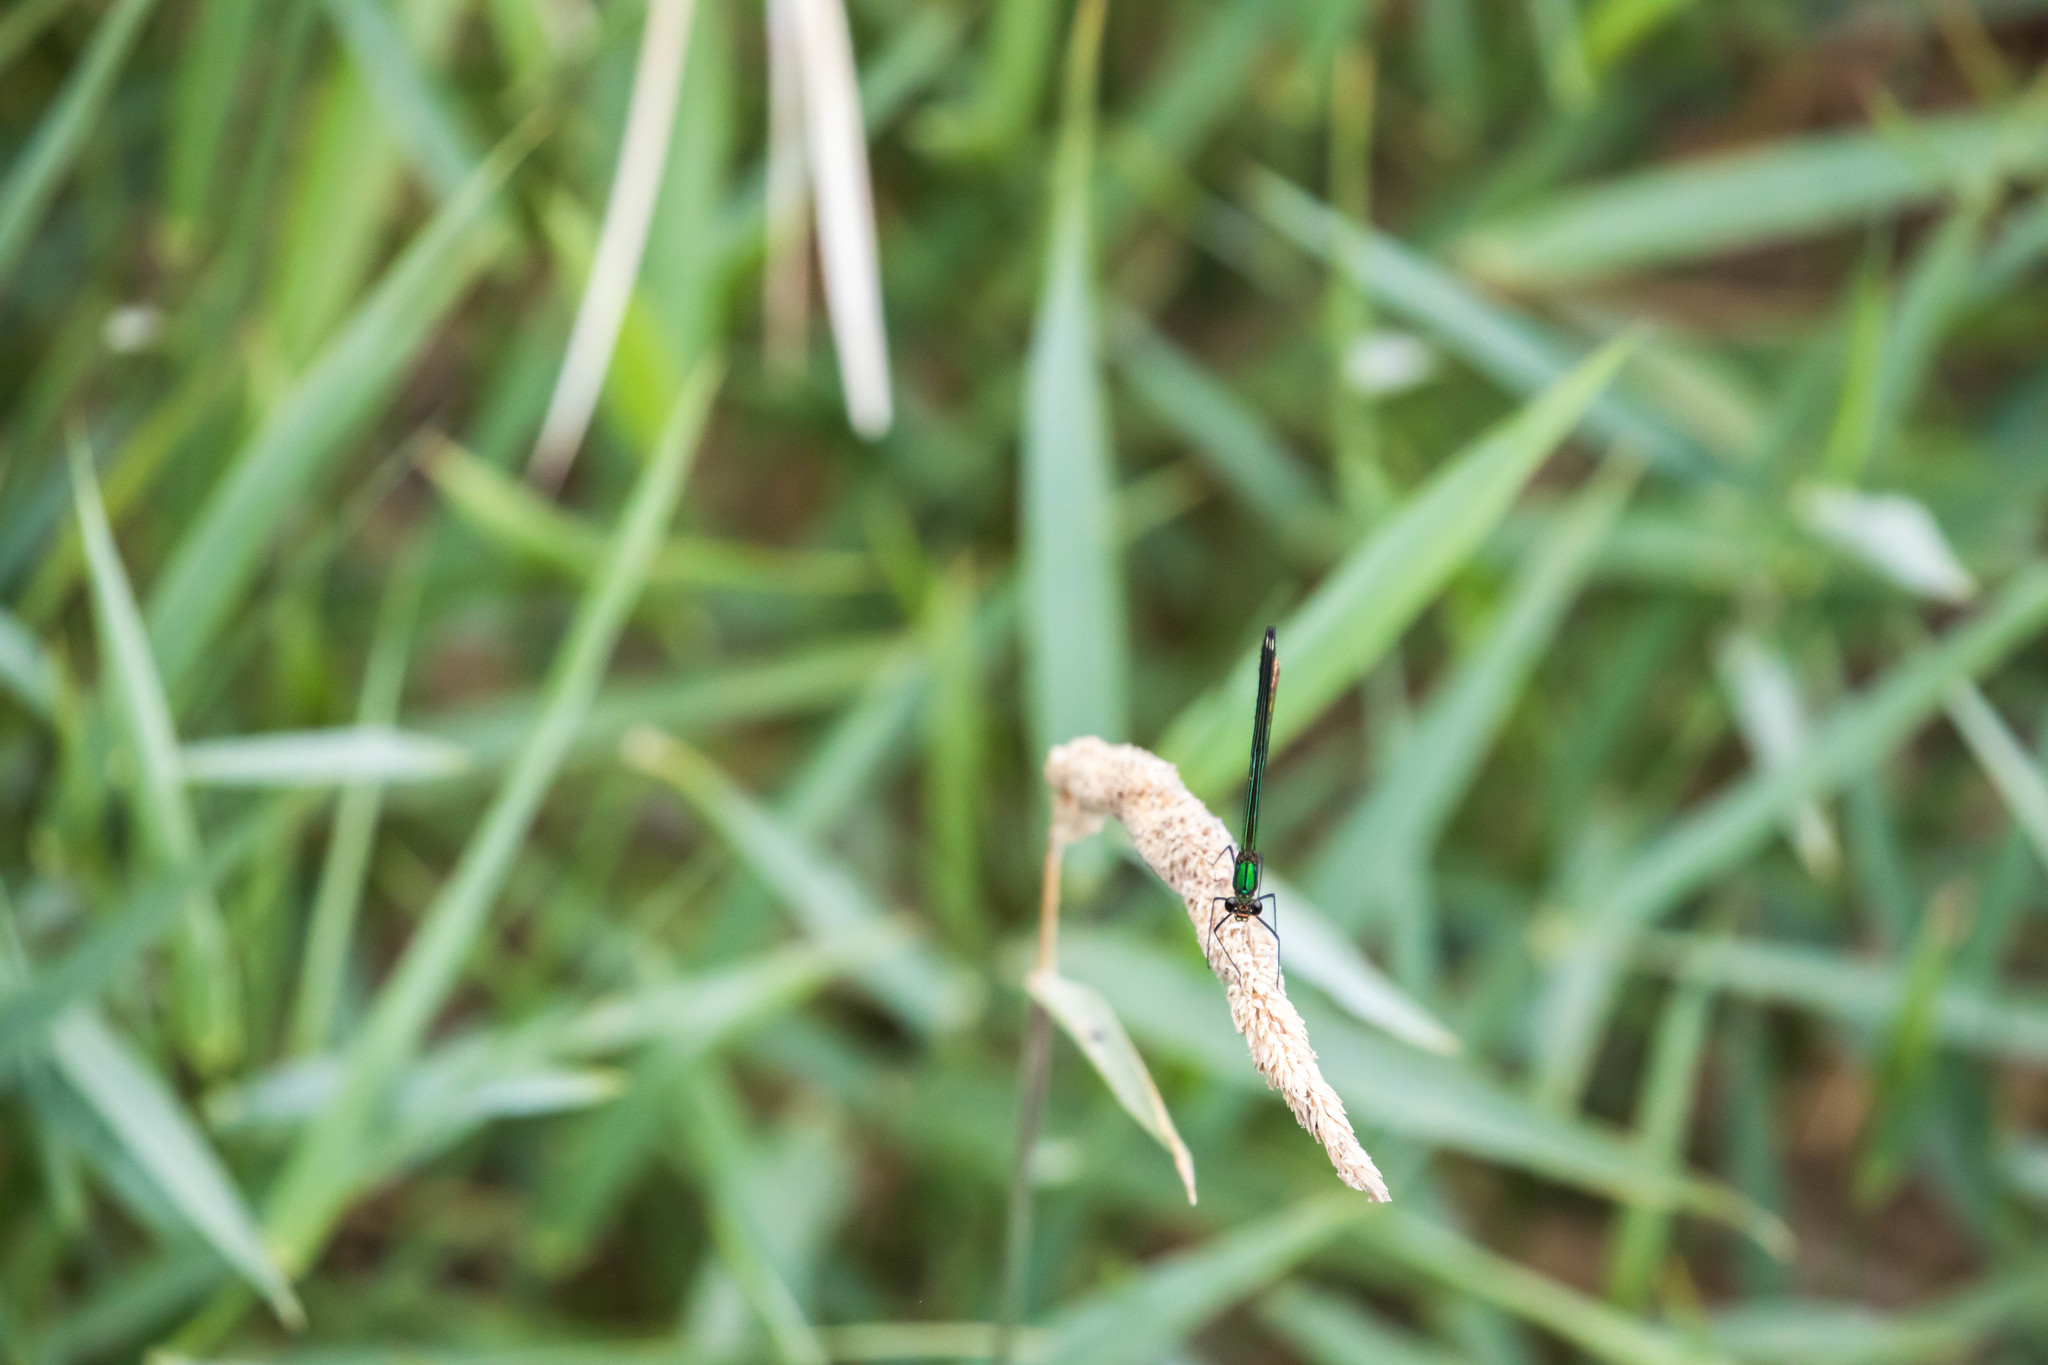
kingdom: Animalia
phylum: Arthropoda
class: Insecta
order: Odonata
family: Calopterygidae
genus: Calopteryx
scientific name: Calopteryx aequabilis
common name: River jewelwing
